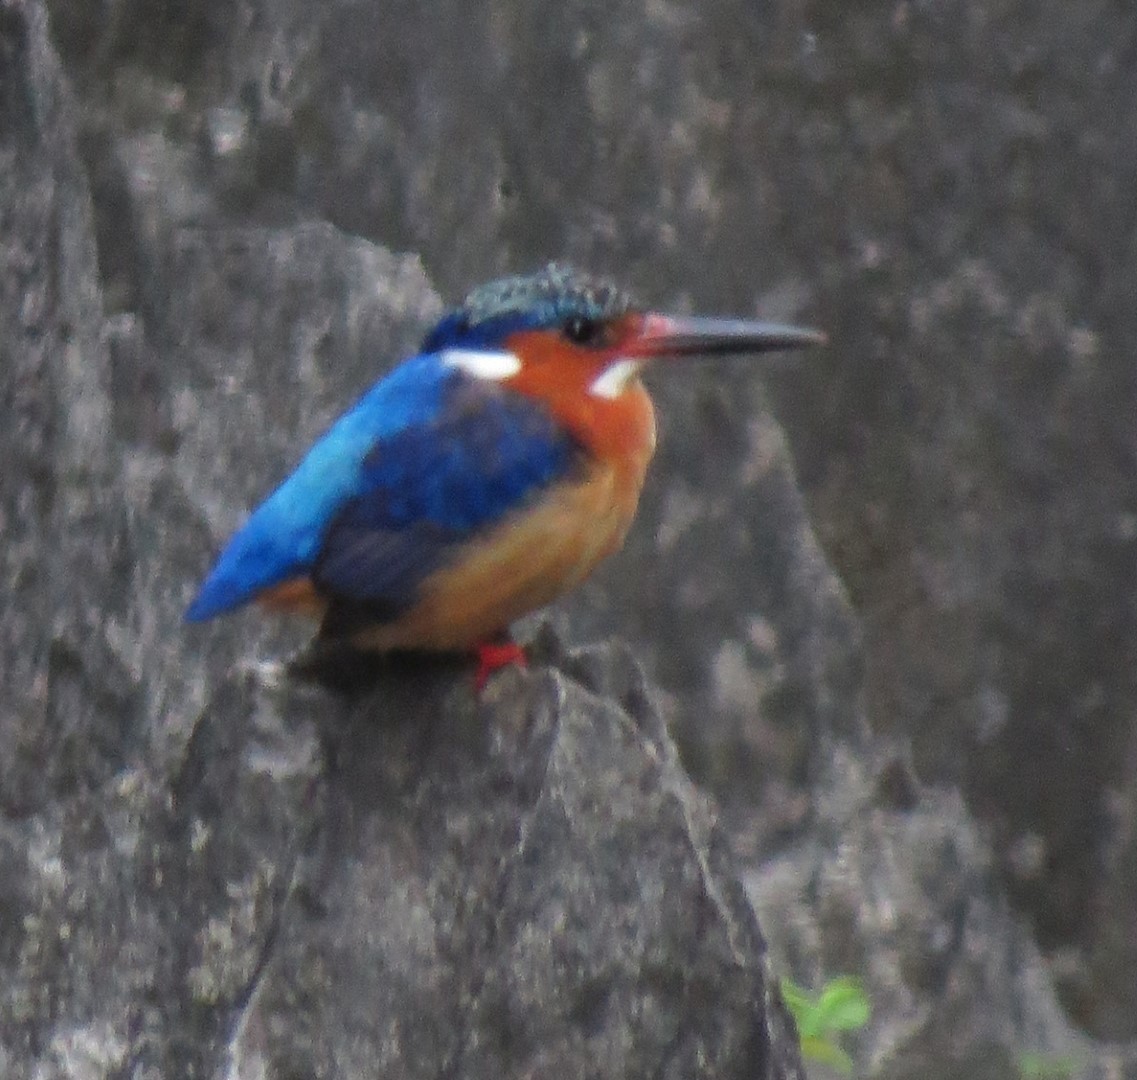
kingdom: Animalia
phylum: Chordata
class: Aves
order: Coraciiformes
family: Alcedinidae
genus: Corythornis
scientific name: Corythornis vintsioides
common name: Malagasy kingfisher
